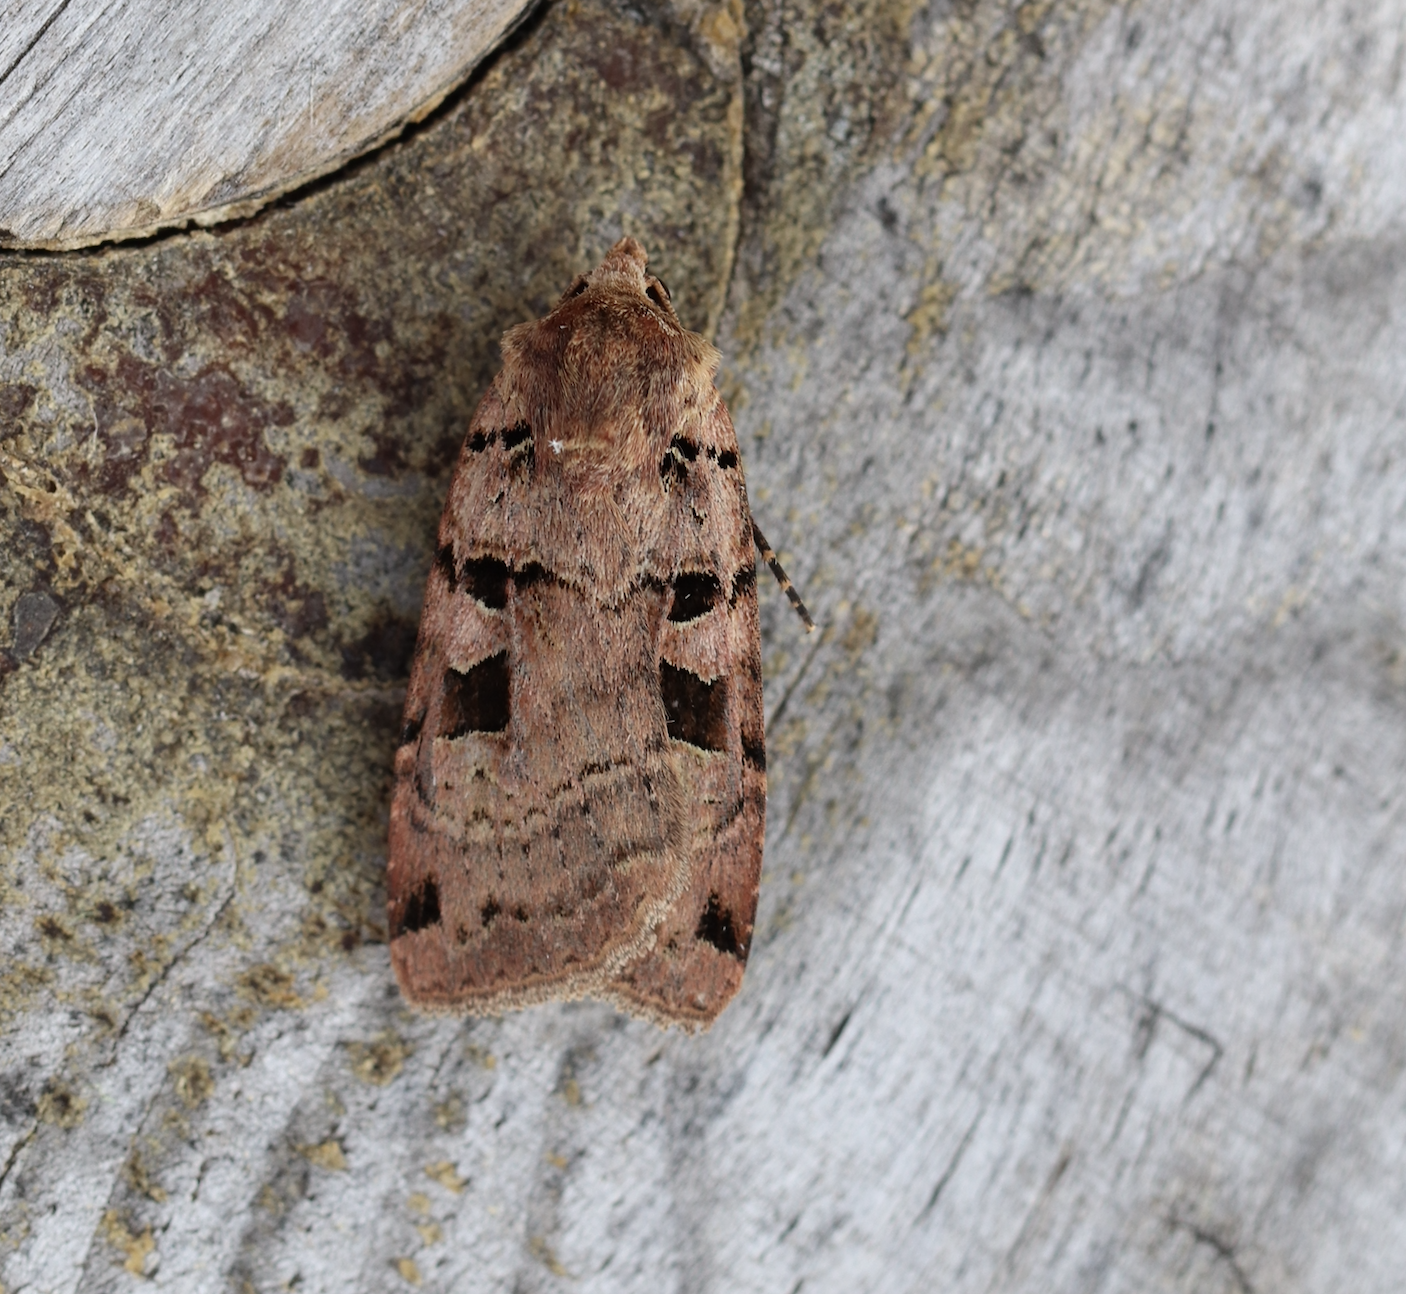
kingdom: Animalia
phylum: Arthropoda
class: Insecta
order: Lepidoptera
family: Noctuidae
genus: Xestia
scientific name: Xestia triangulum
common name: Double square-spot
